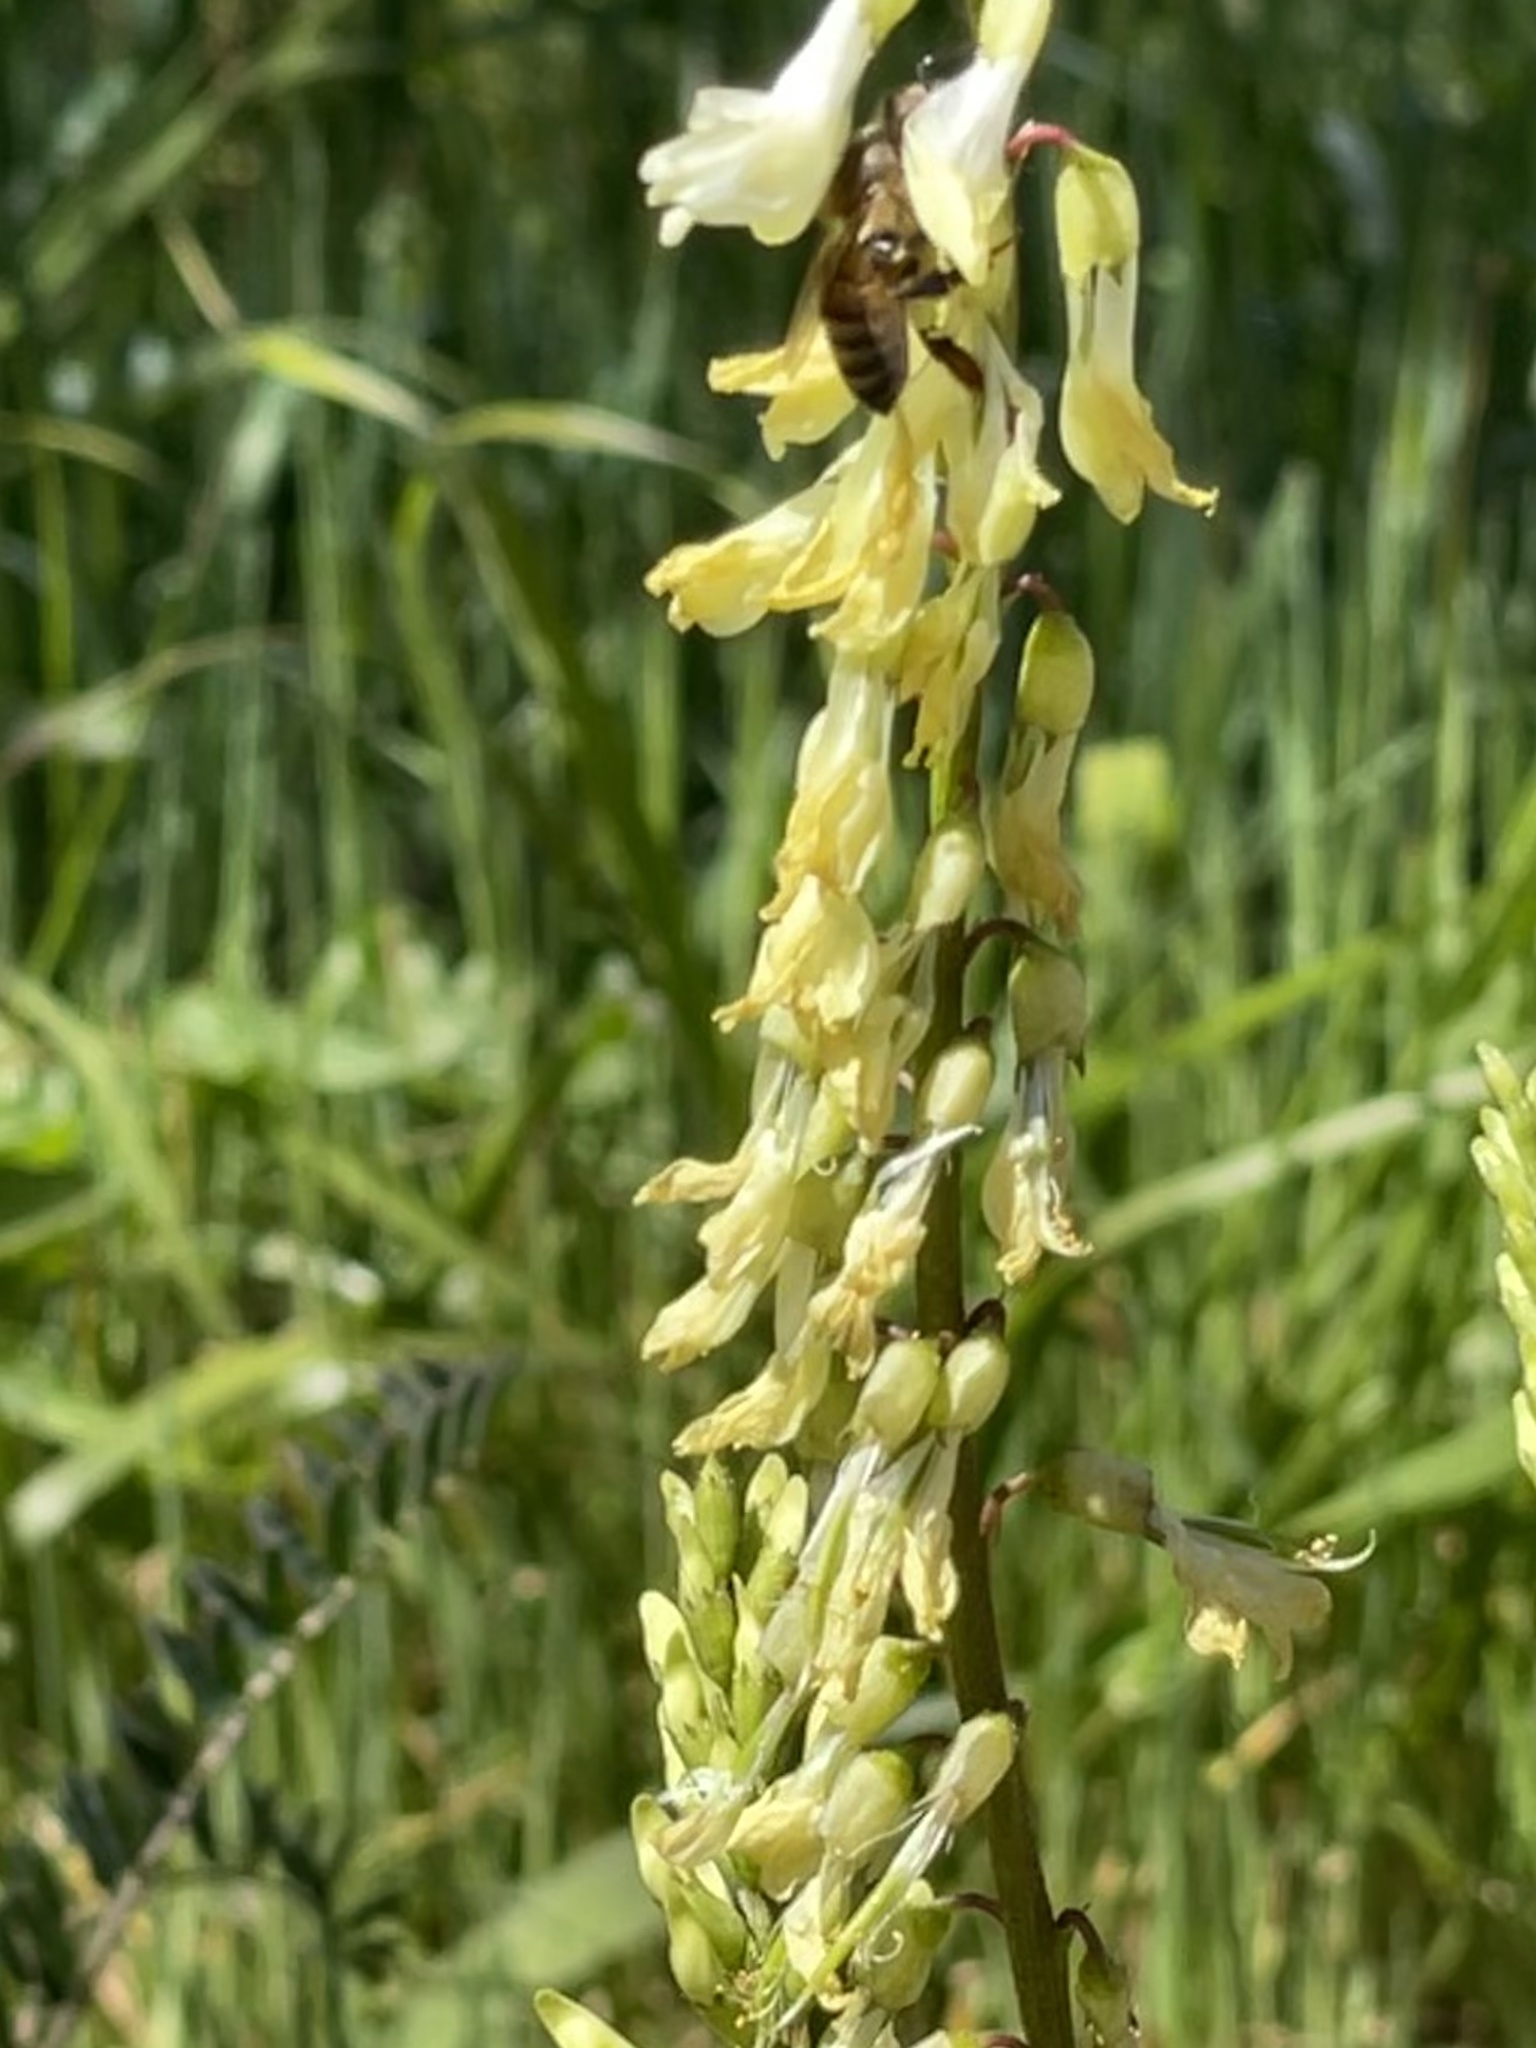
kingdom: Plantae
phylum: Tracheophyta
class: Magnoliopsida
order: Fabales
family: Fabaceae
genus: Astragalus
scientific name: Astragalus trichopodus
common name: Santa barbara milk-vetch
